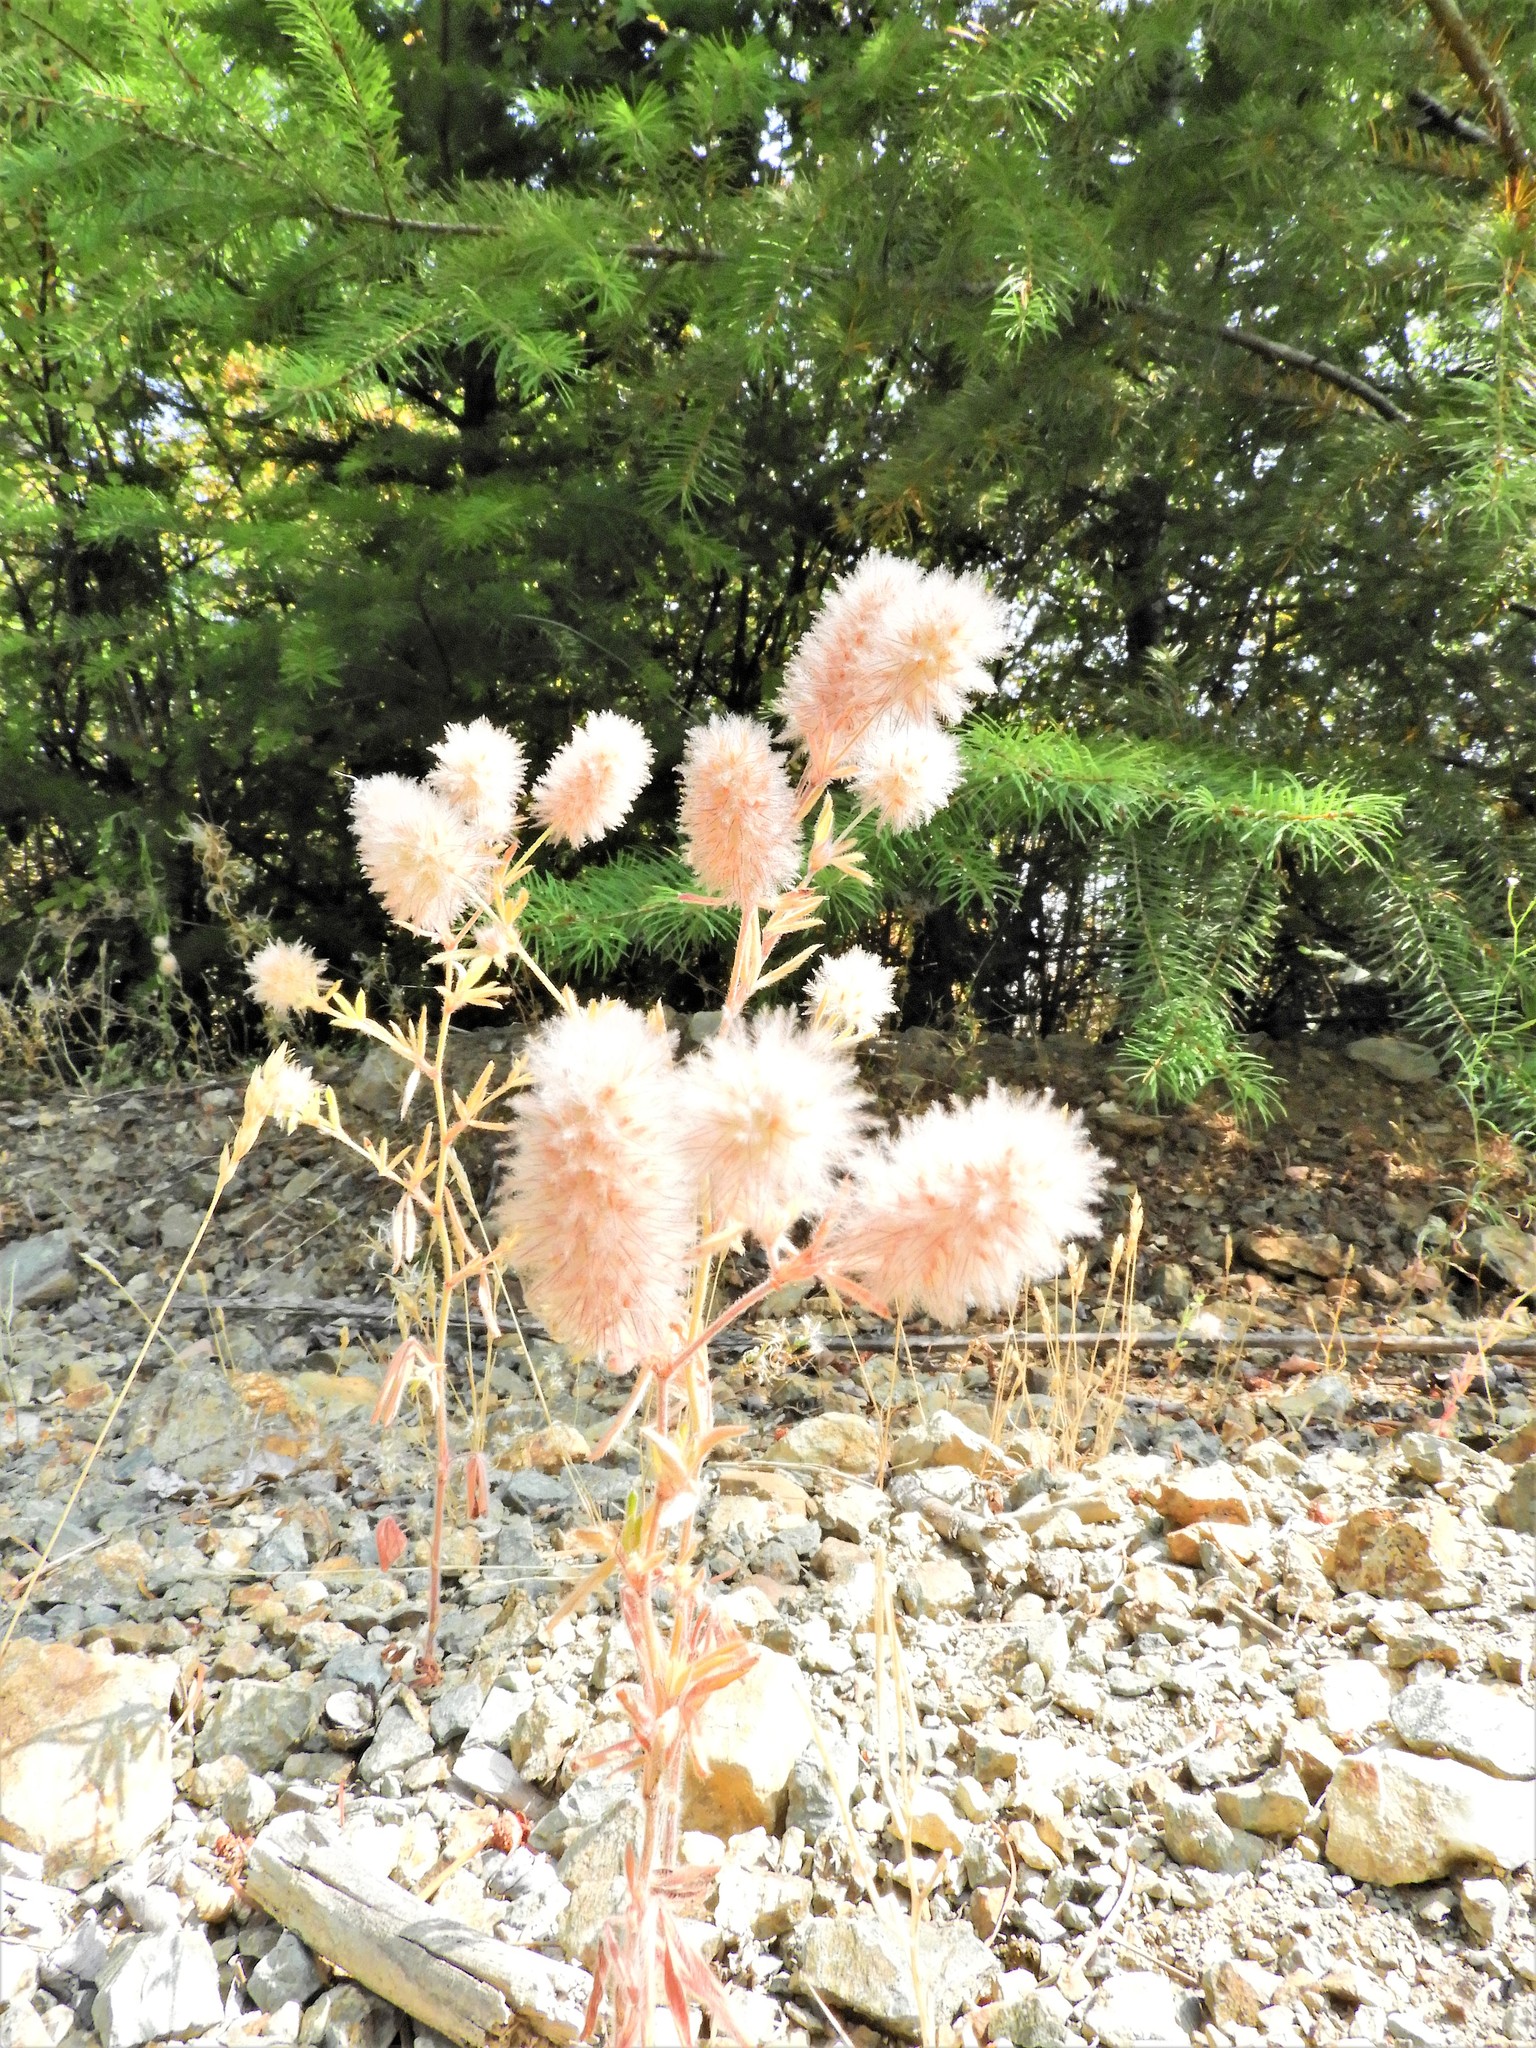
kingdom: Plantae
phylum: Tracheophyta
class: Magnoliopsida
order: Fabales
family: Fabaceae
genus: Trifolium
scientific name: Trifolium arvense
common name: Hare's-foot clover
